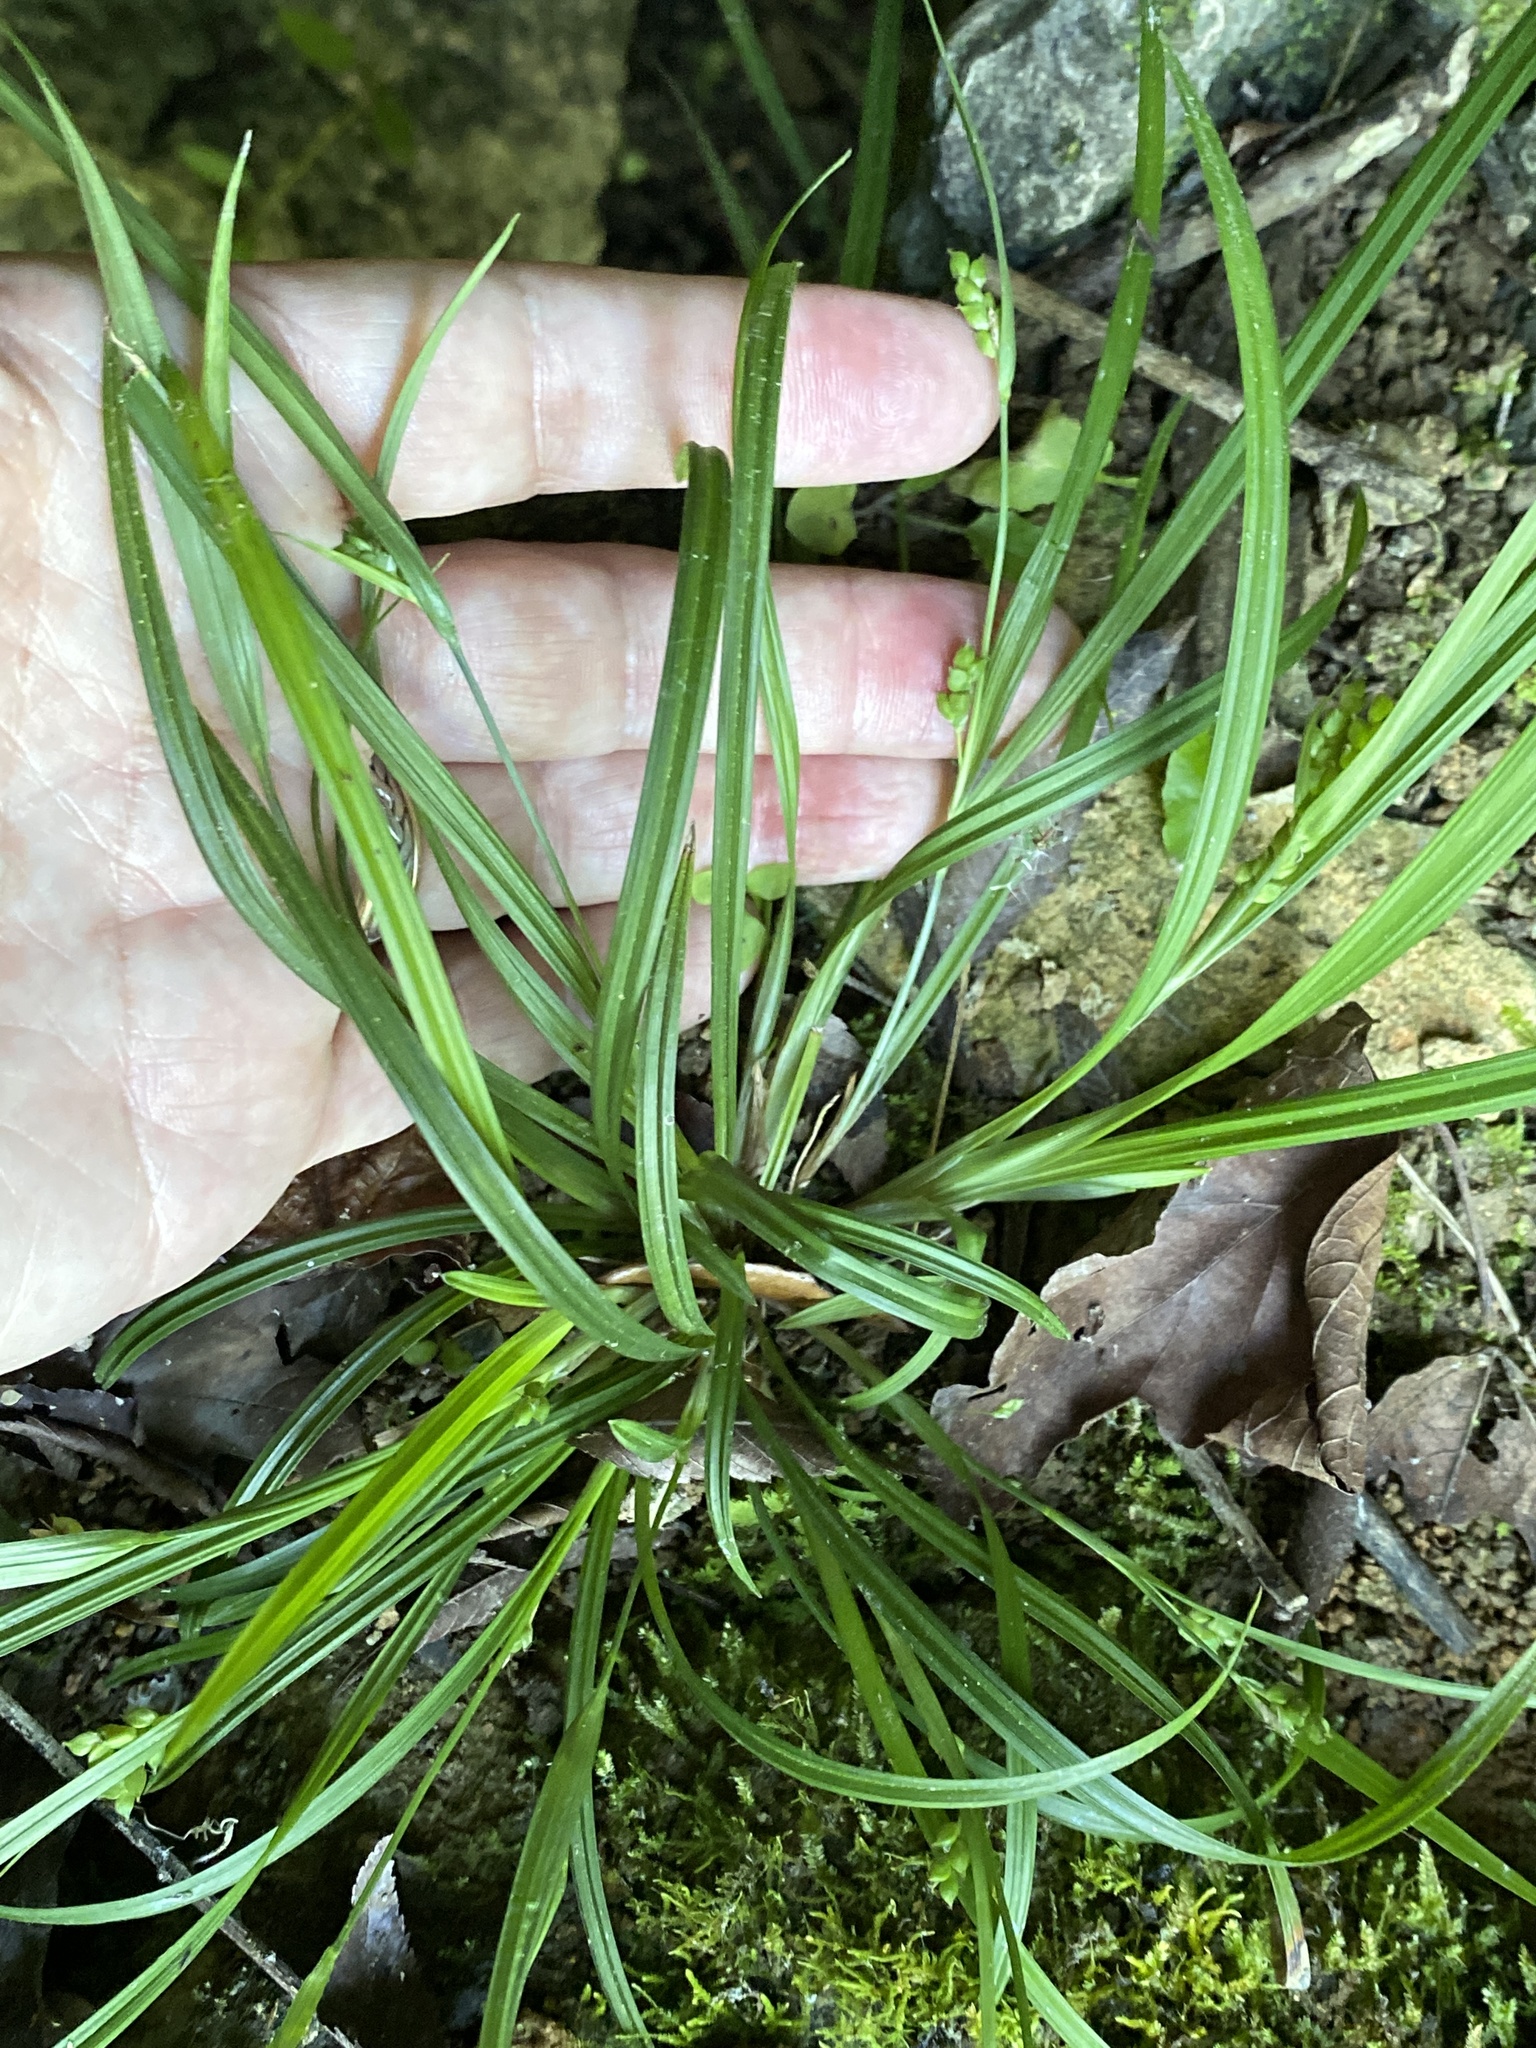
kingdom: Plantae
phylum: Tracheophyta
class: Liliopsida
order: Poales
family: Cyperaceae
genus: Carex
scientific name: Carex abscondita
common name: Thicket sedge
